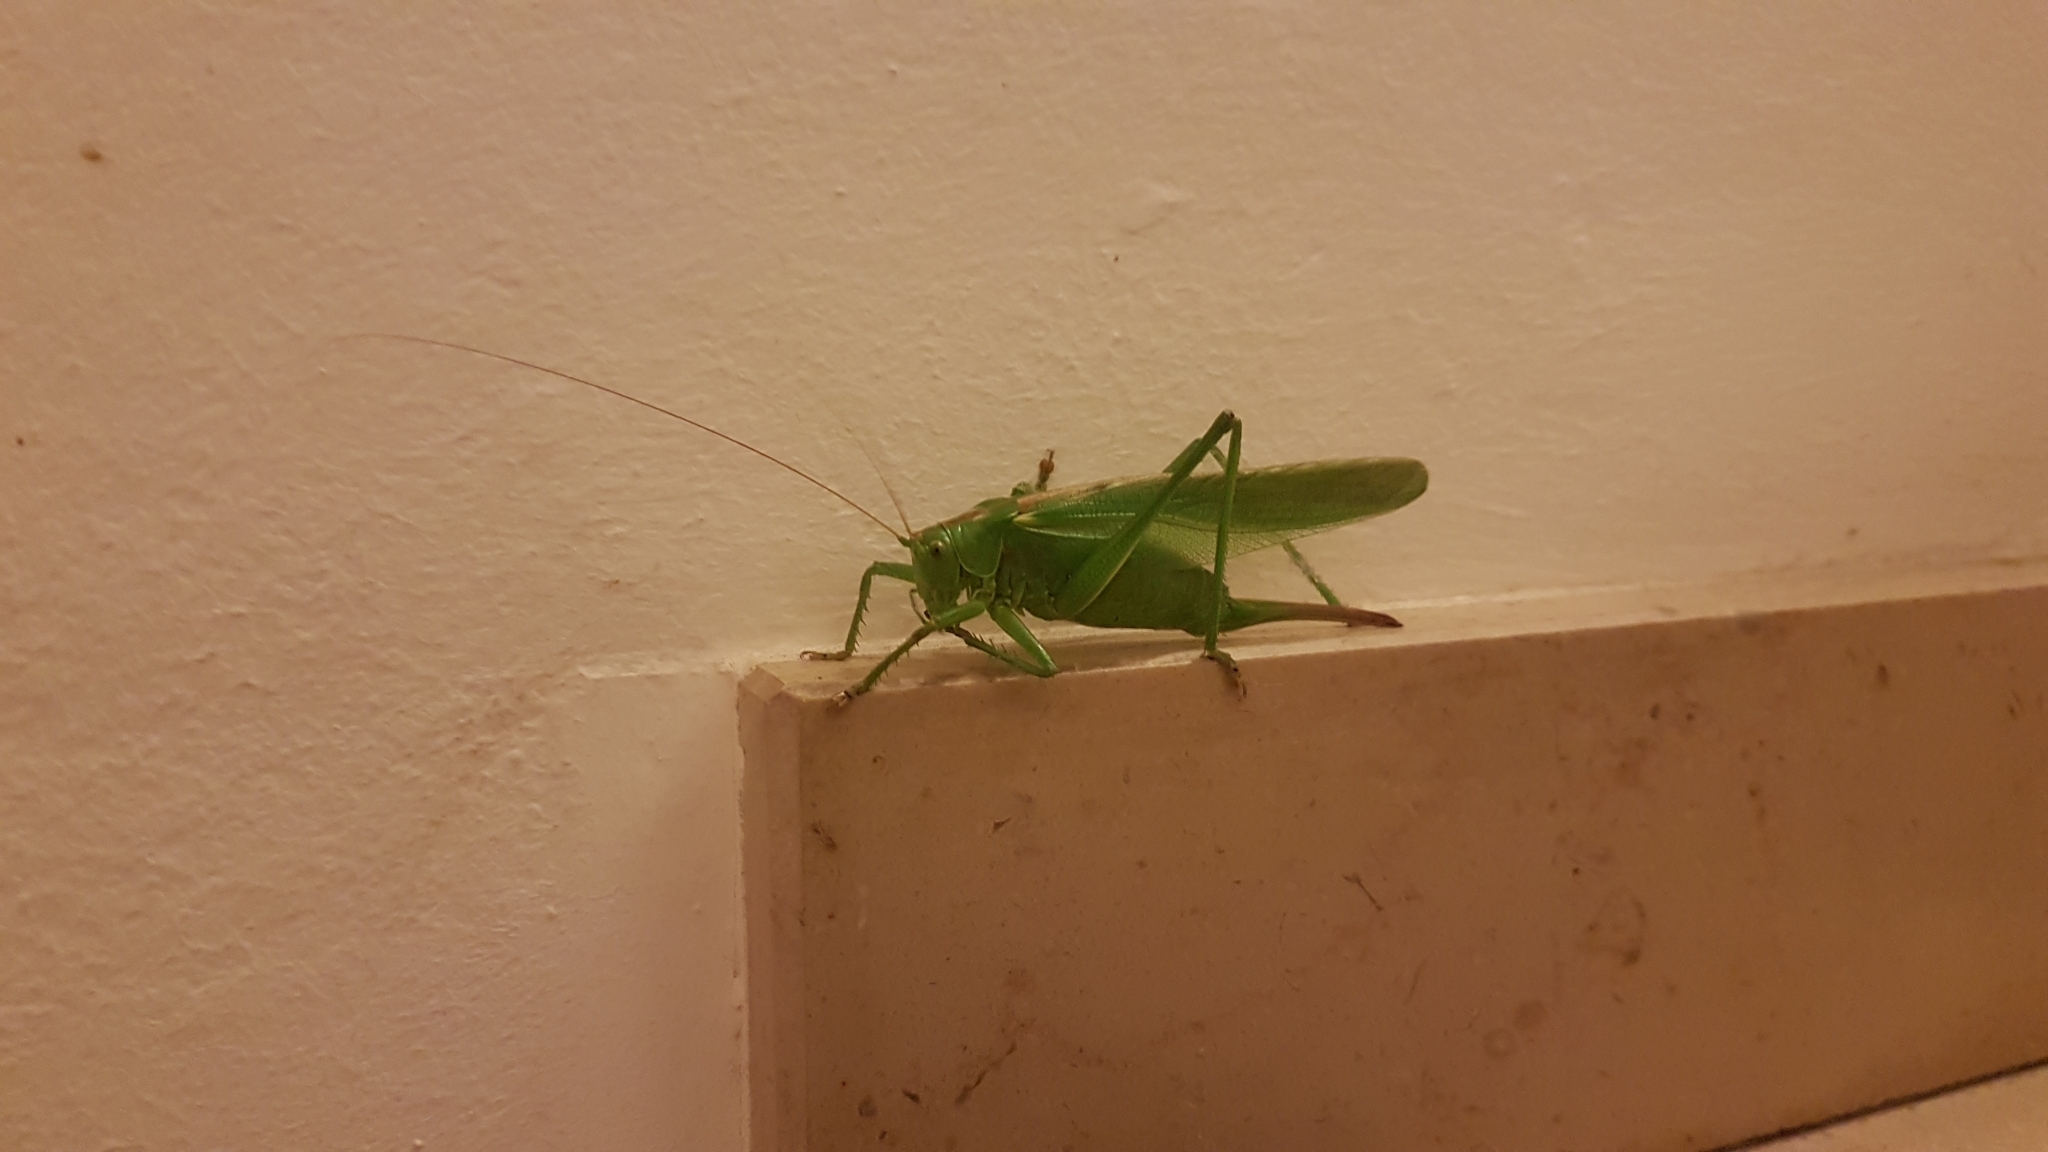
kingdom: Animalia
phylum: Arthropoda
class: Insecta
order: Orthoptera
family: Tettigoniidae
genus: Tettigonia
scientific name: Tettigonia viridissima
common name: Great green bush-cricket
